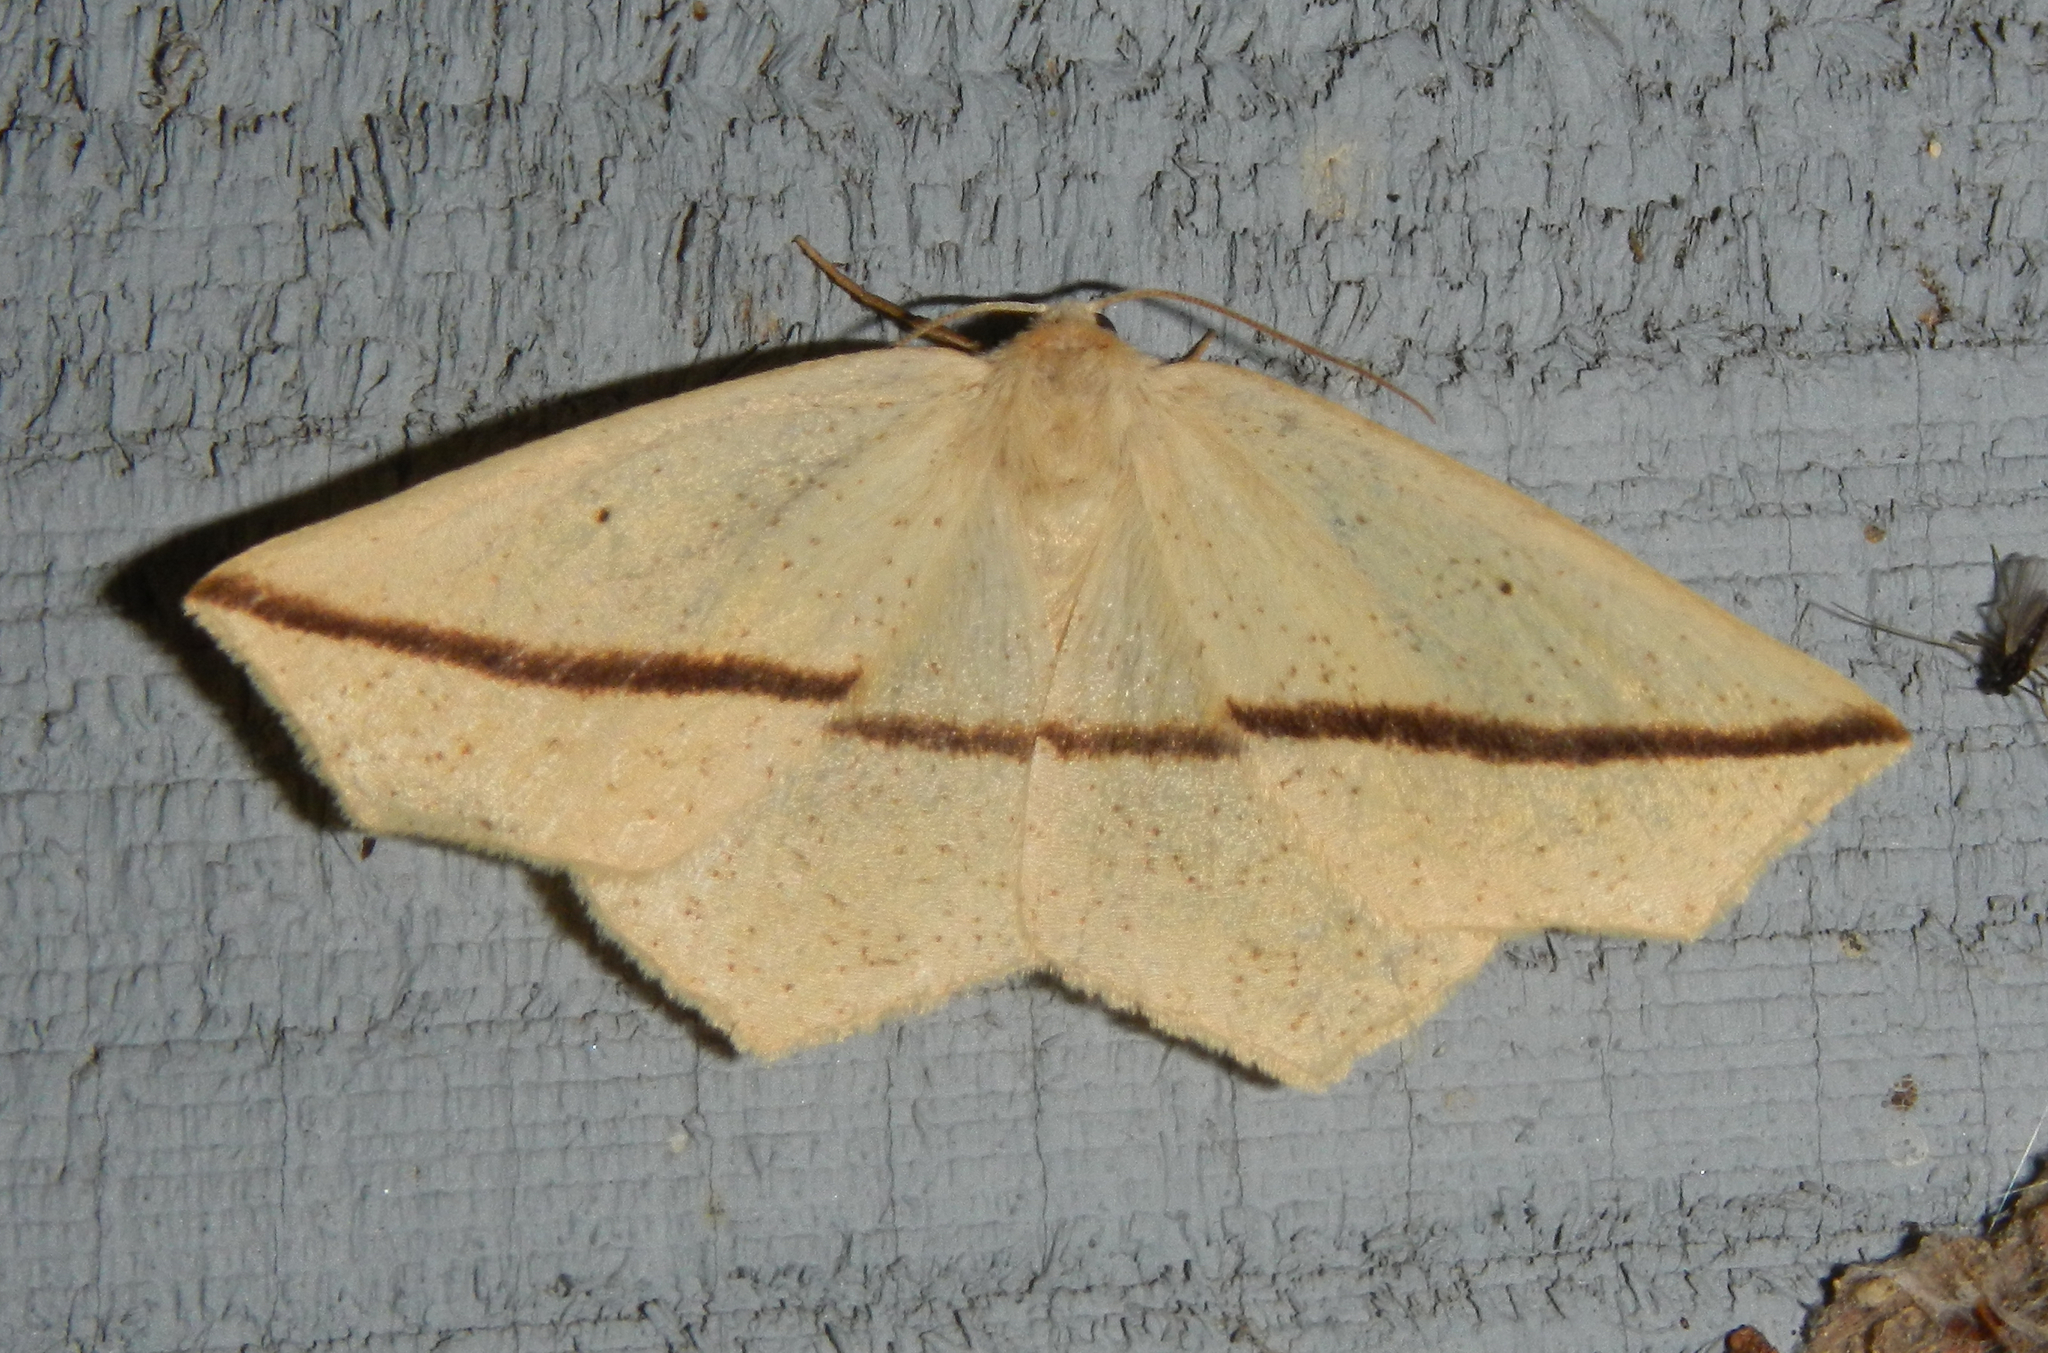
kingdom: Animalia
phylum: Arthropoda
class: Insecta
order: Lepidoptera
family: Geometridae
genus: Tetracis
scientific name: Tetracis crocallata
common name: Yellow slant-line
